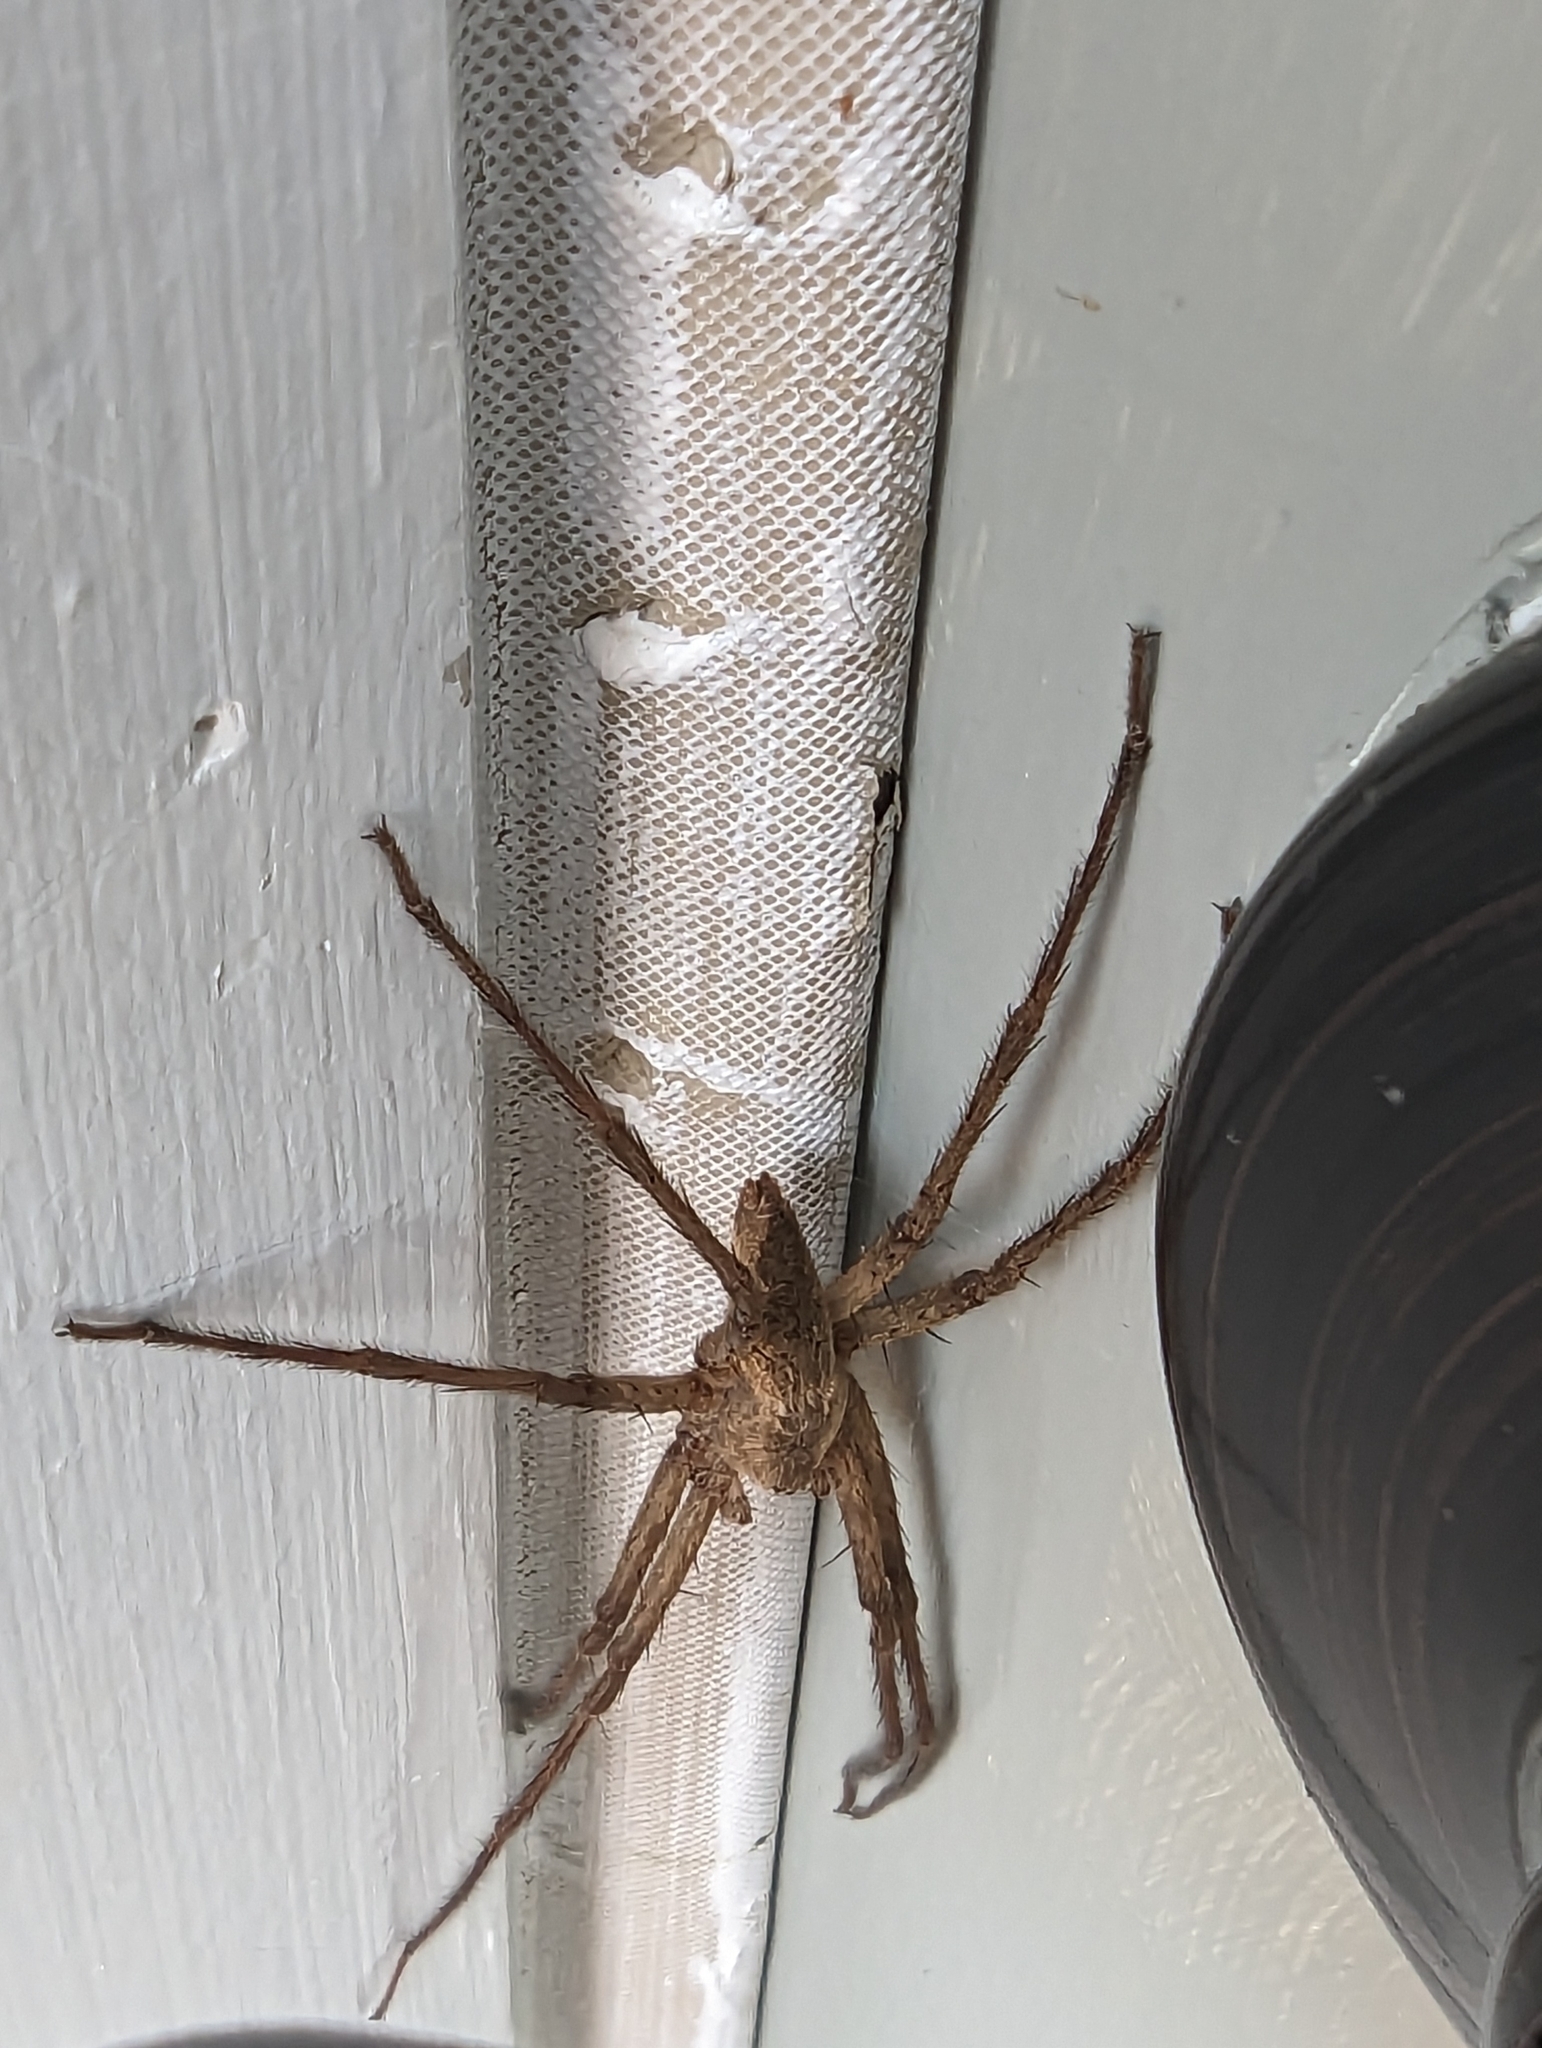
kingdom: Animalia
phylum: Arthropoda
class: Arachnida
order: Araneae
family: Pisauridae
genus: Pisaurina
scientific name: Pisaurina mira
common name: American nursery web spider
